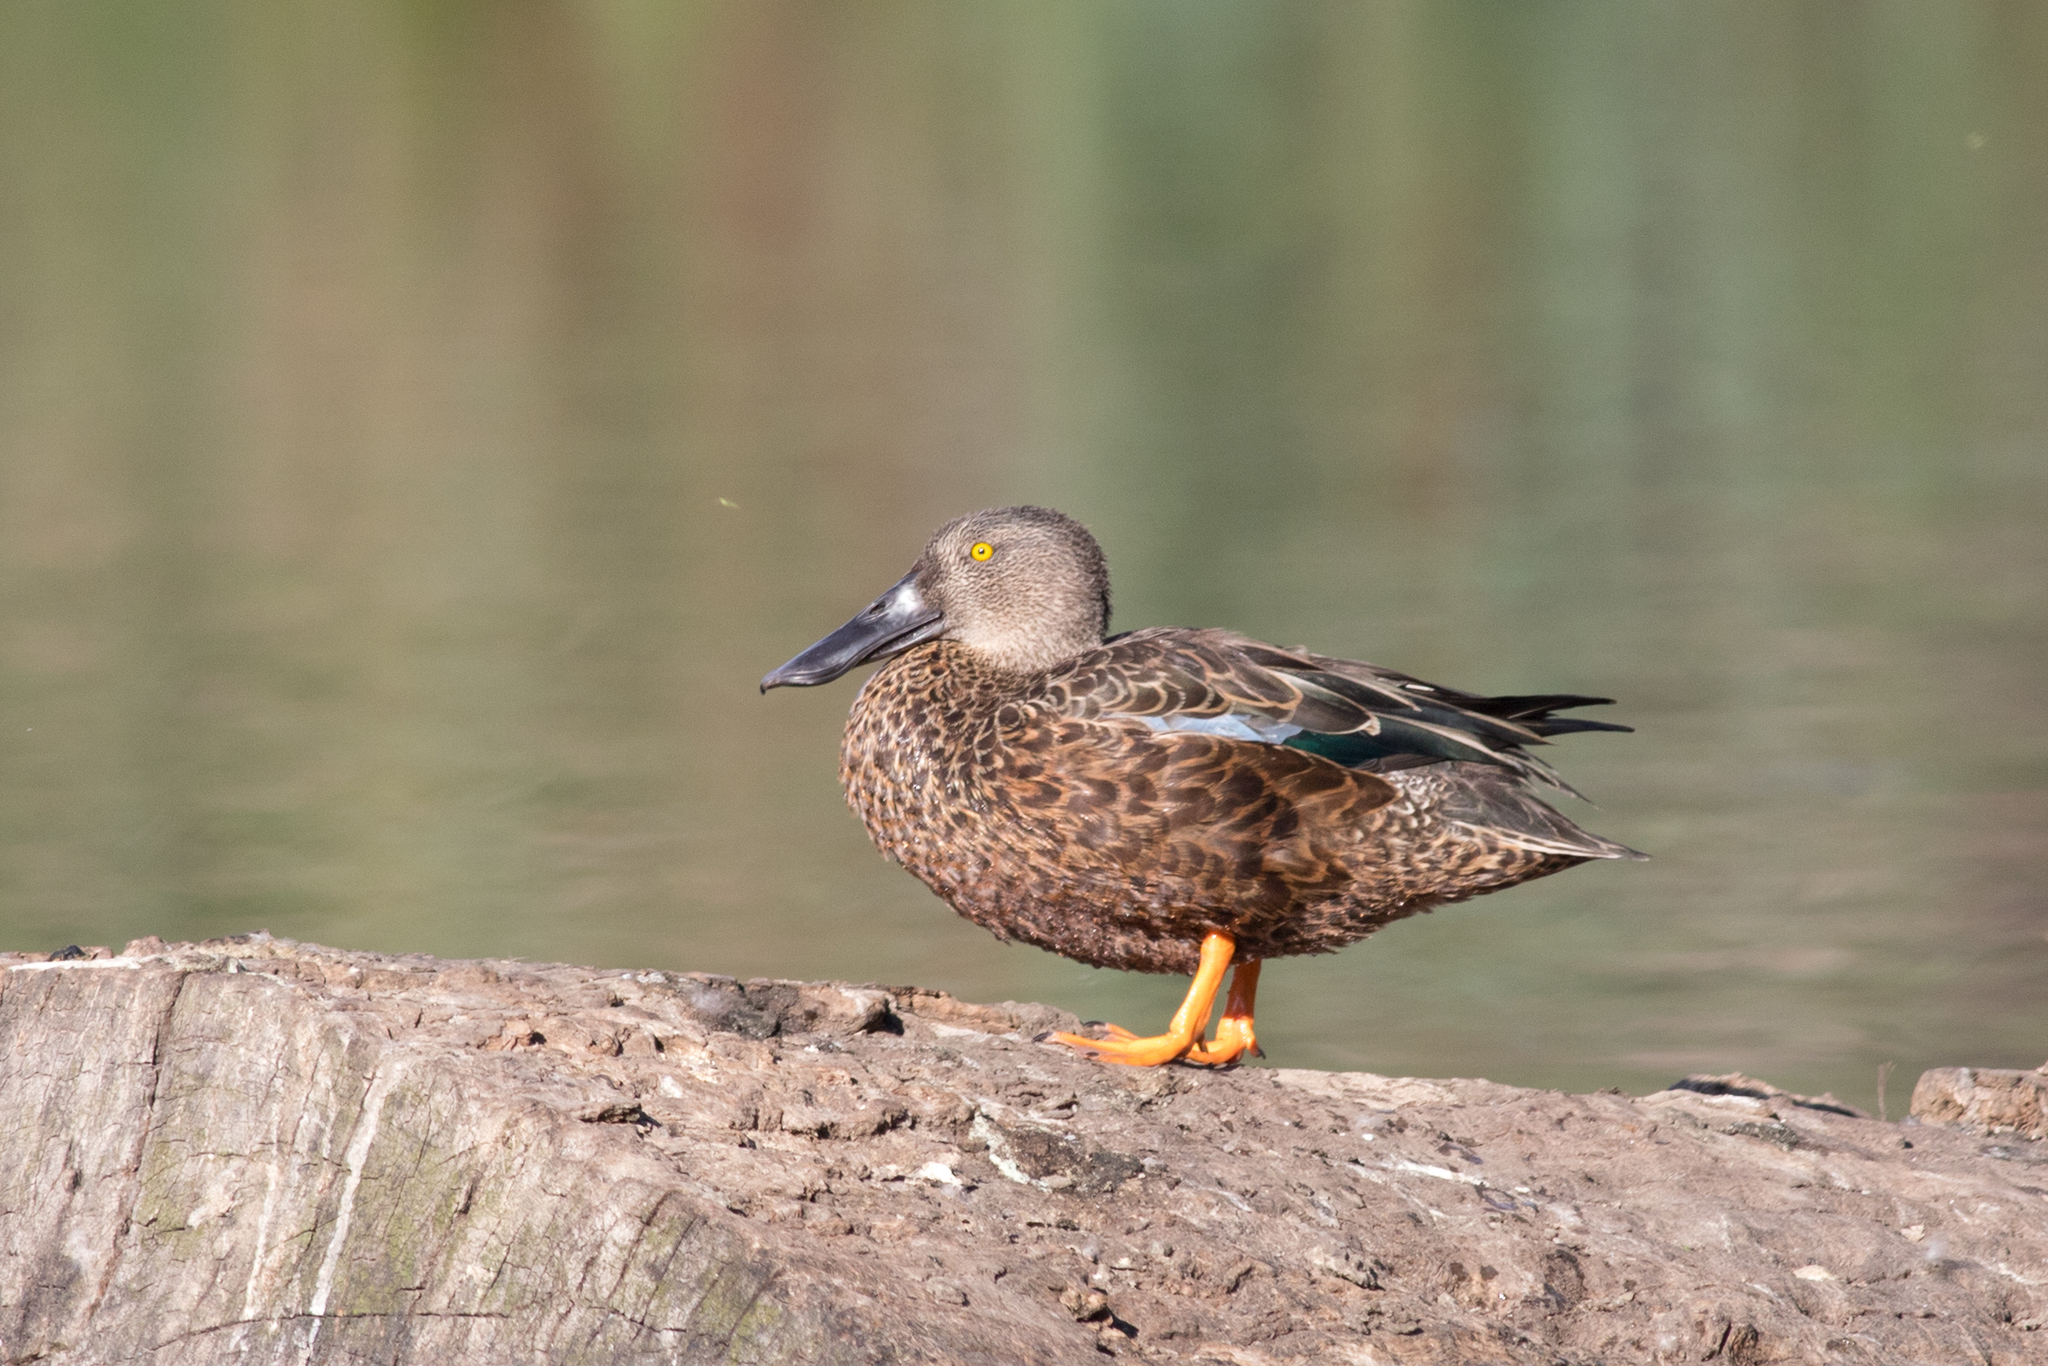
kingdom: Animalia
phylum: Chordata
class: Aves
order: Anseriformes
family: Anatidae
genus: Spatula
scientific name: Spatula rhynchotis
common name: Australian shoveler
